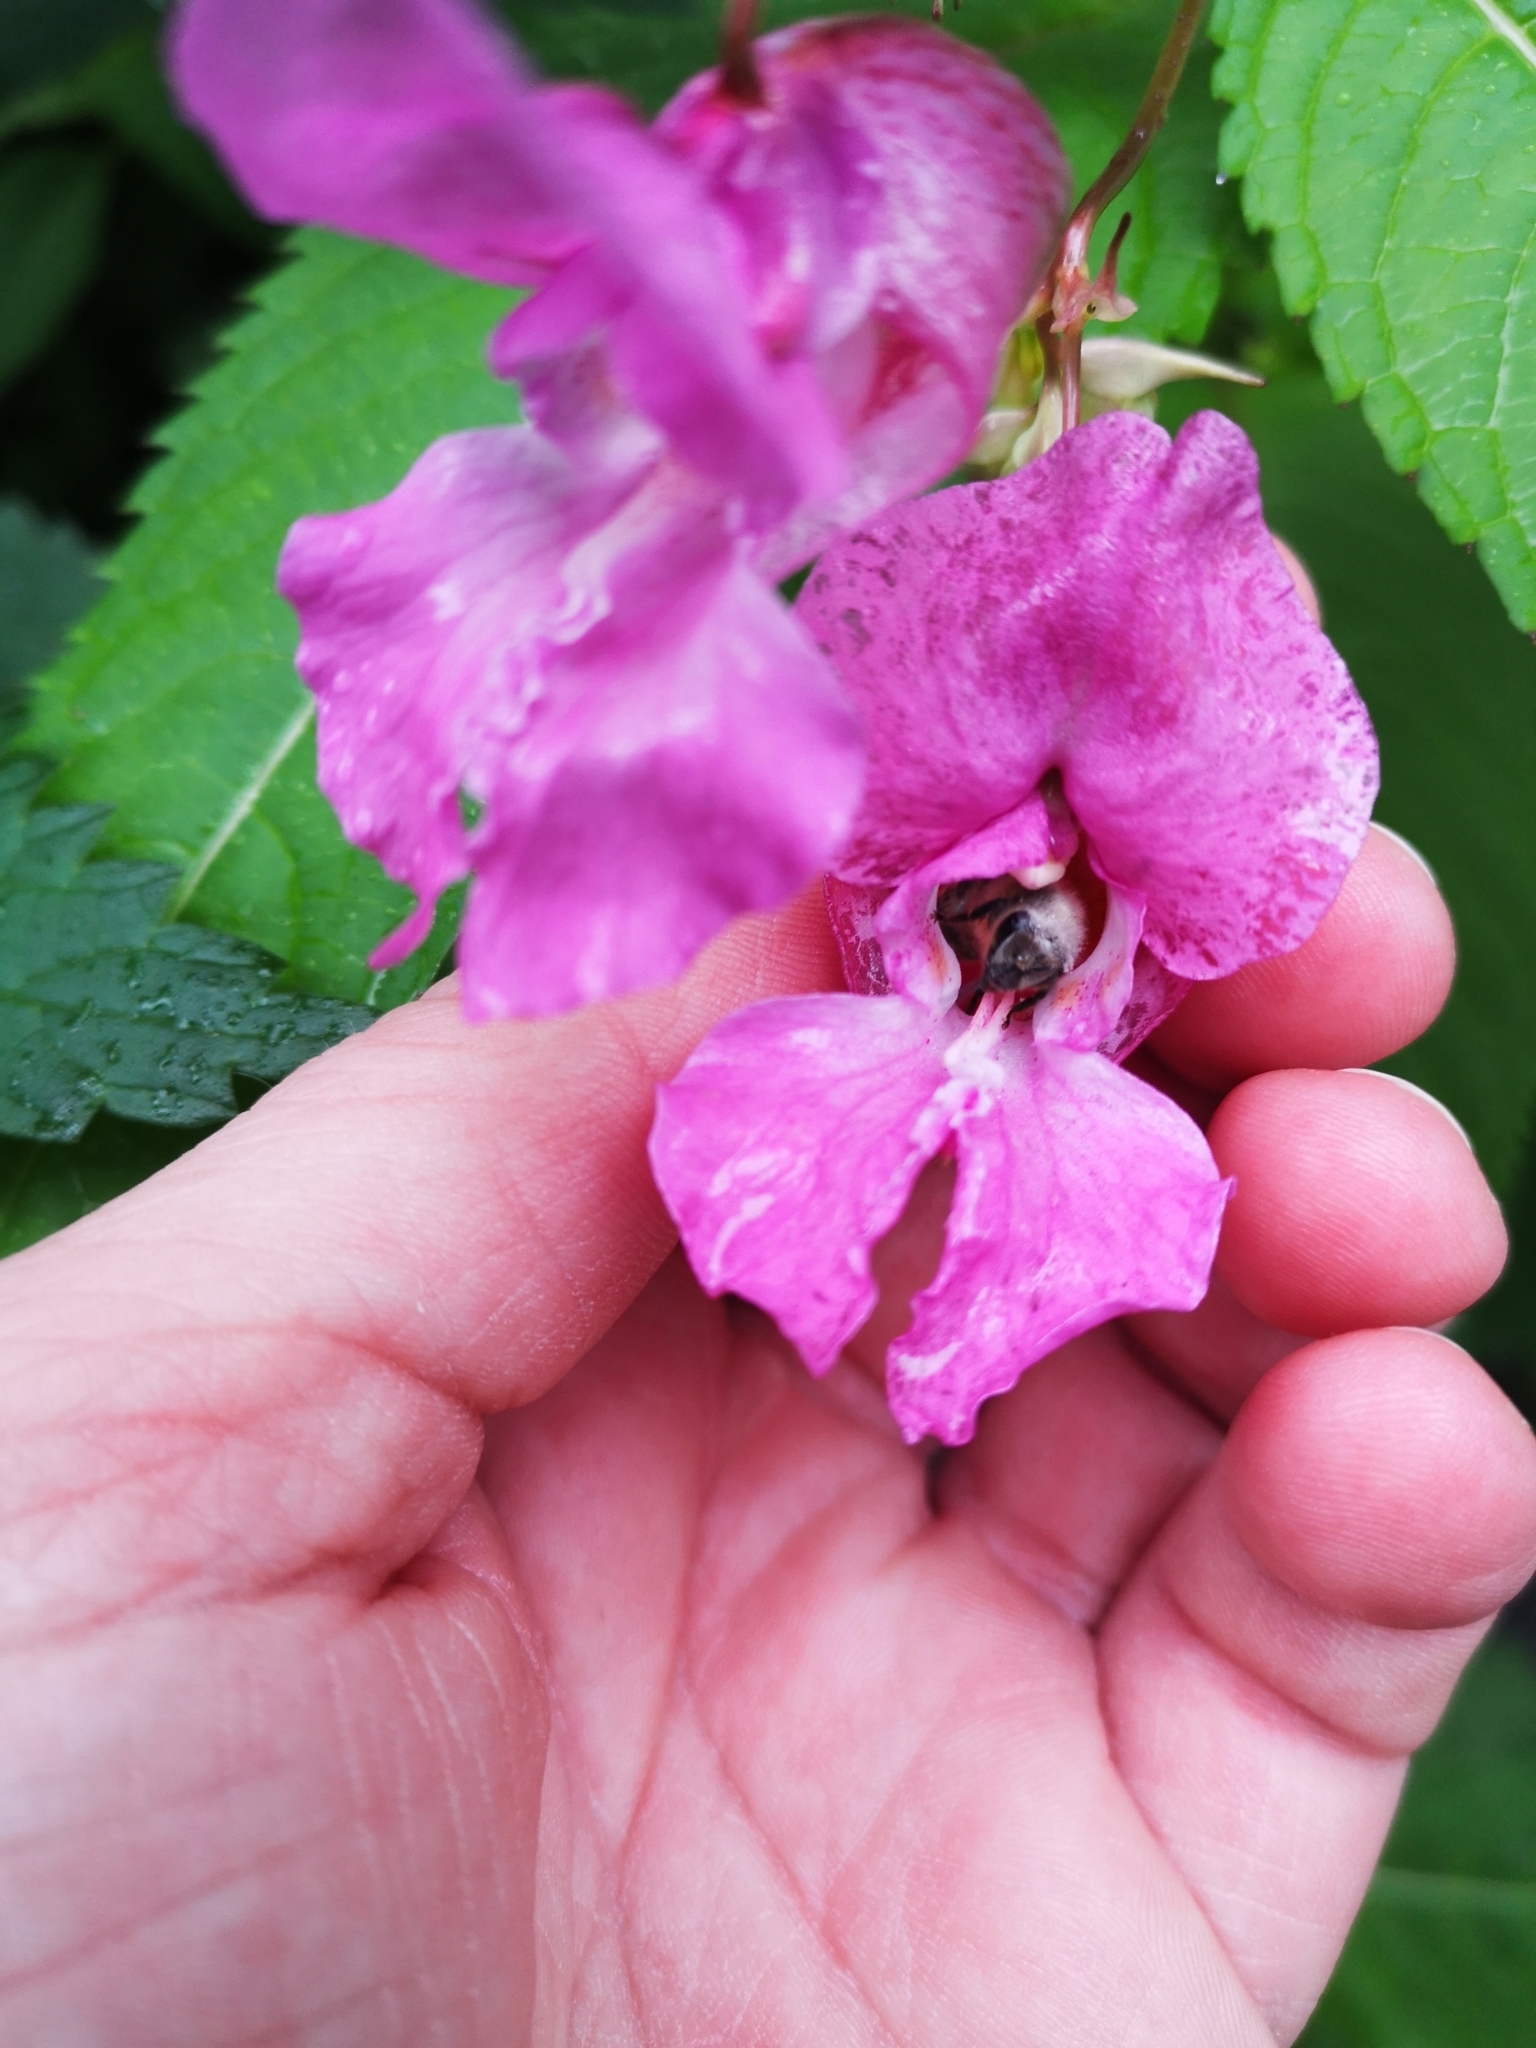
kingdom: Plantae
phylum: Tracheophyta
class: Magnoliopsida
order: Ericales
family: Balsaminaceae
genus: Impatiens
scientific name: Impatiens glandulifera
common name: Himalayan balsam
